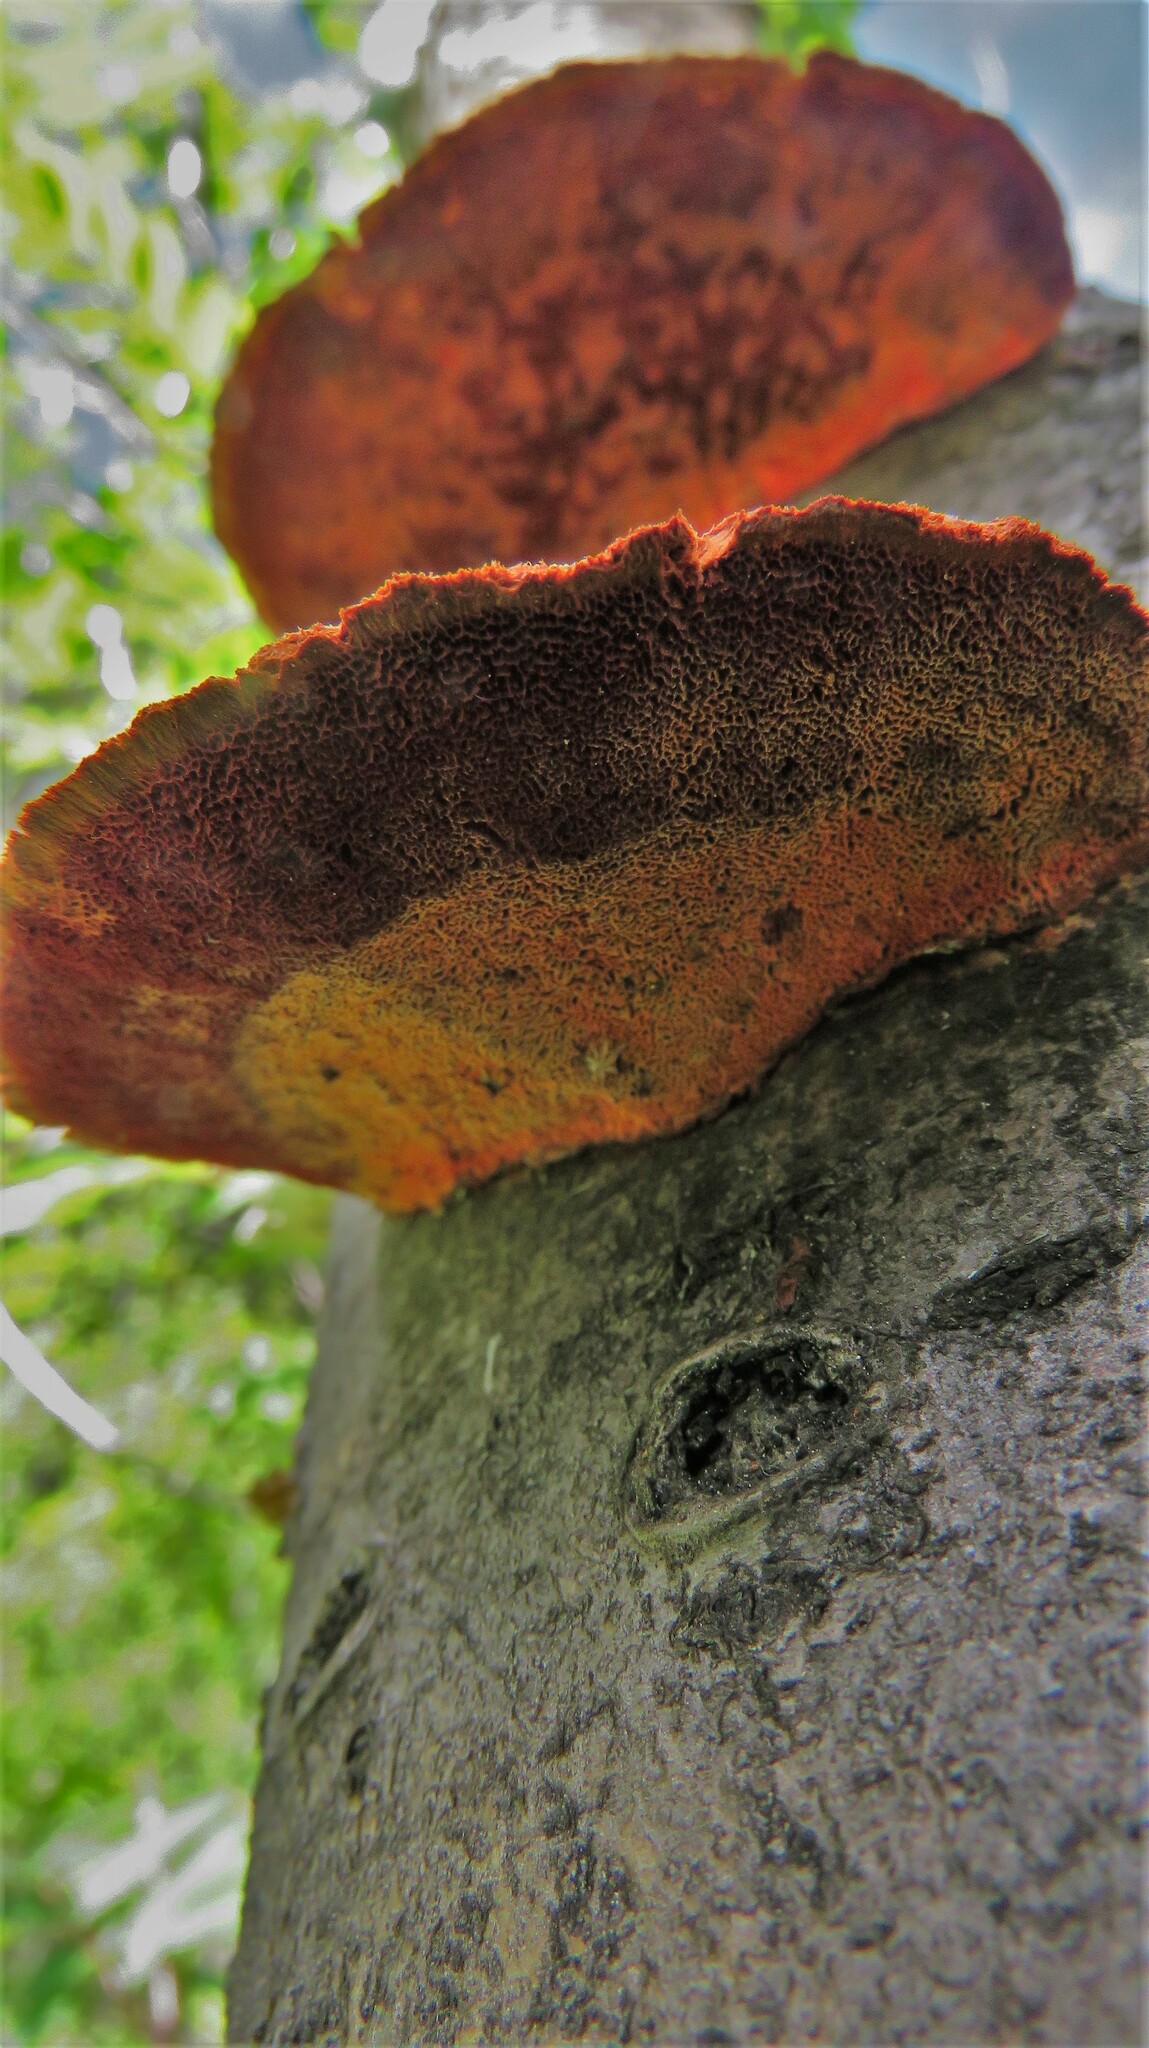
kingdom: Fungi
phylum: Basidiomycota
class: Agaricomycetes
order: Polyporales
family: Polyporaceae
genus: Trametes
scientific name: Trametes cinnabarina
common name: Northern cinnabar polypore
